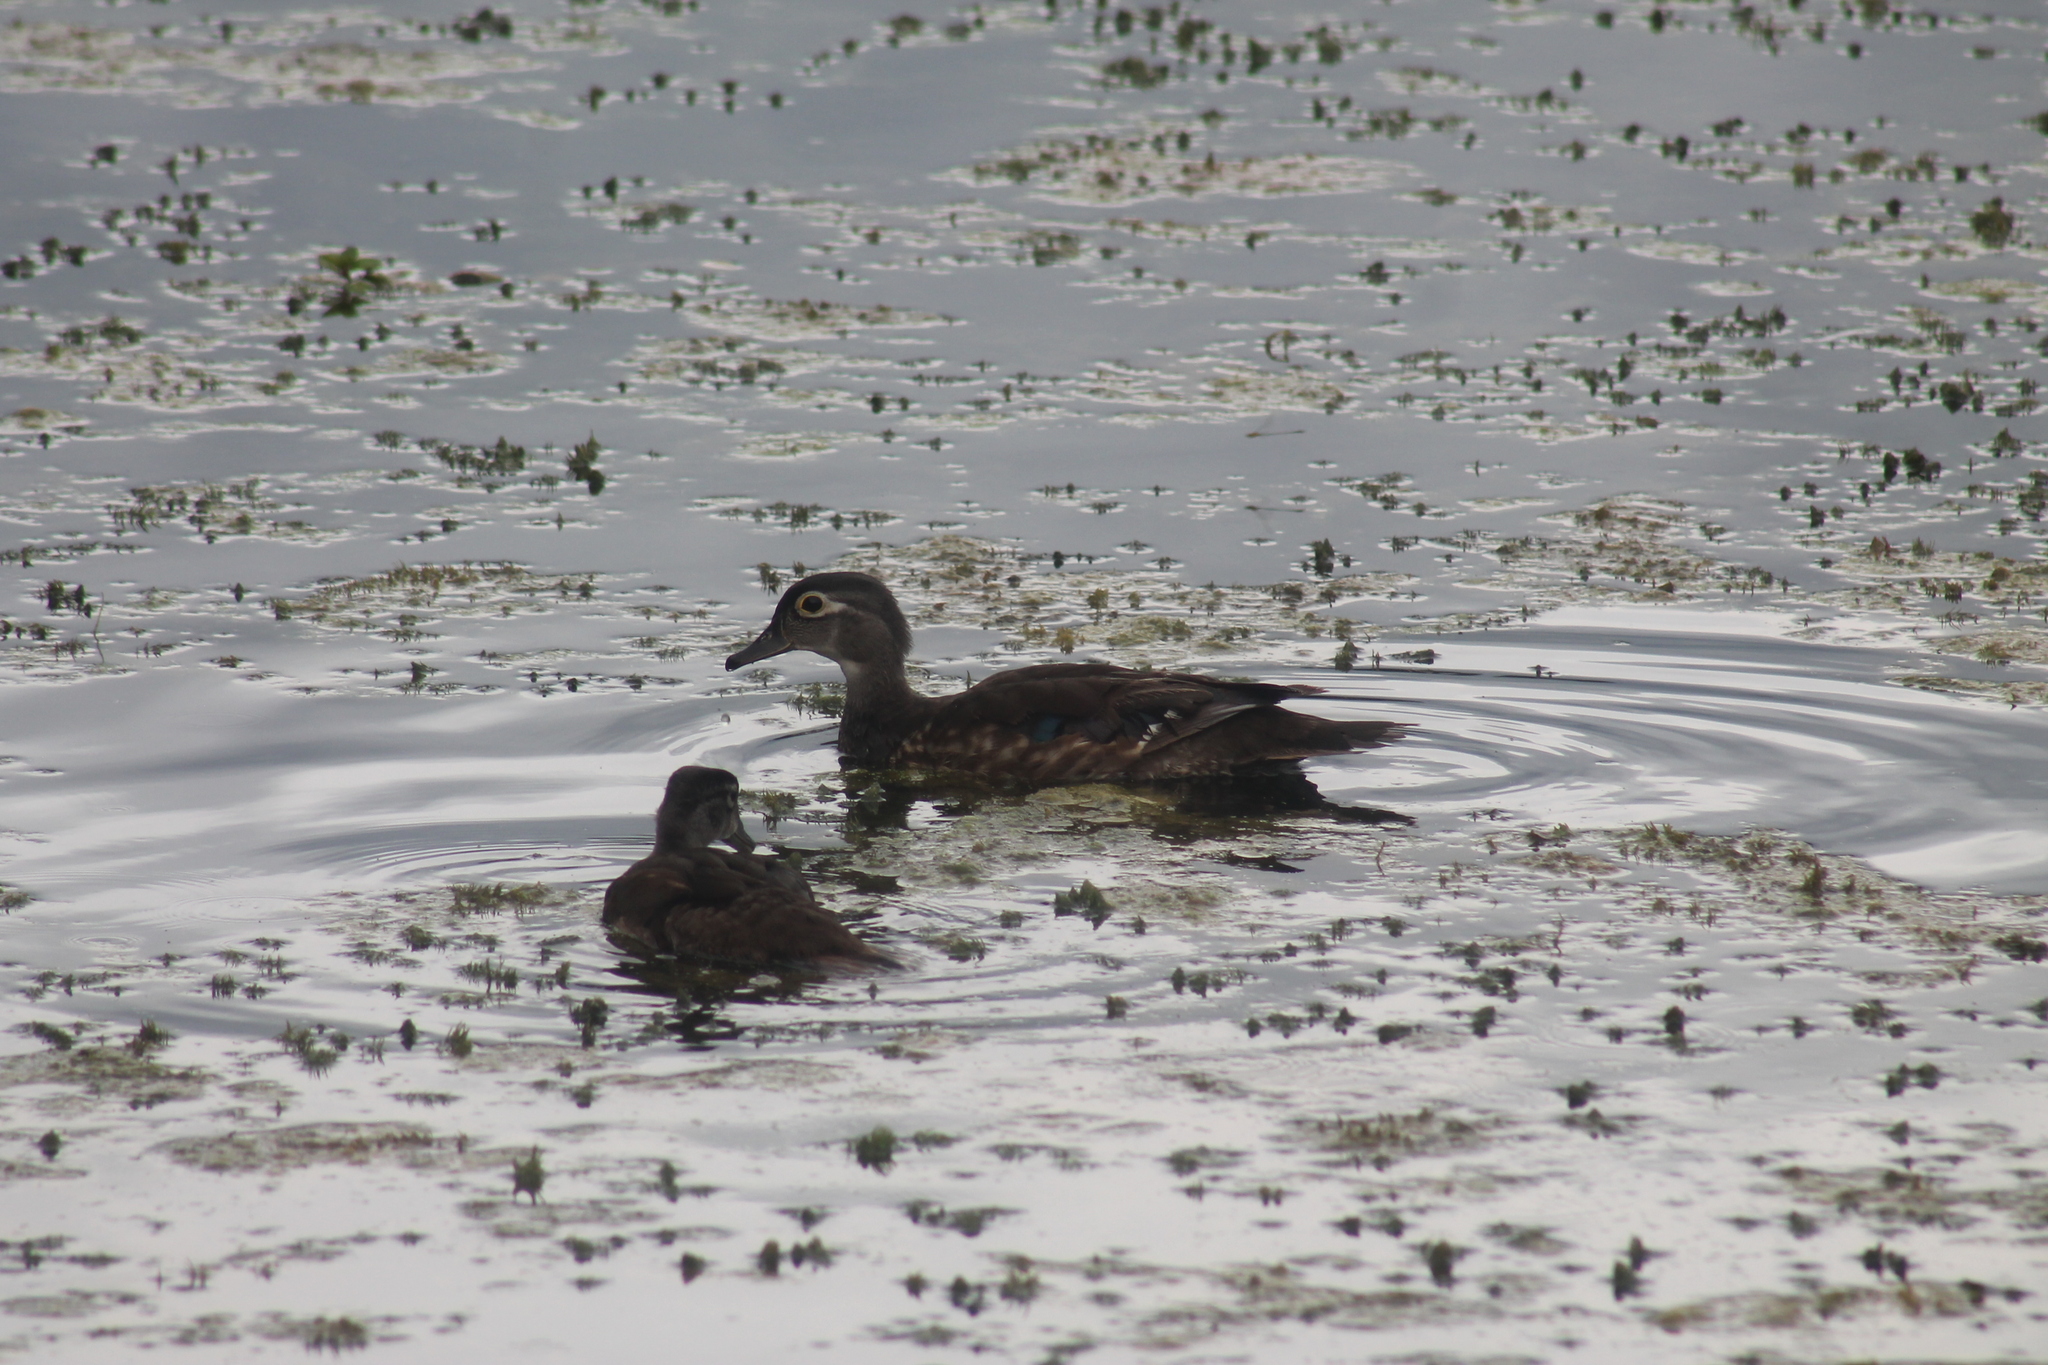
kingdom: Animalia
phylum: Chordata
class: Aves
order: Anseriformes
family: Anatidae
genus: Aix
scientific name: Aix sponsa
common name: Wood duck
